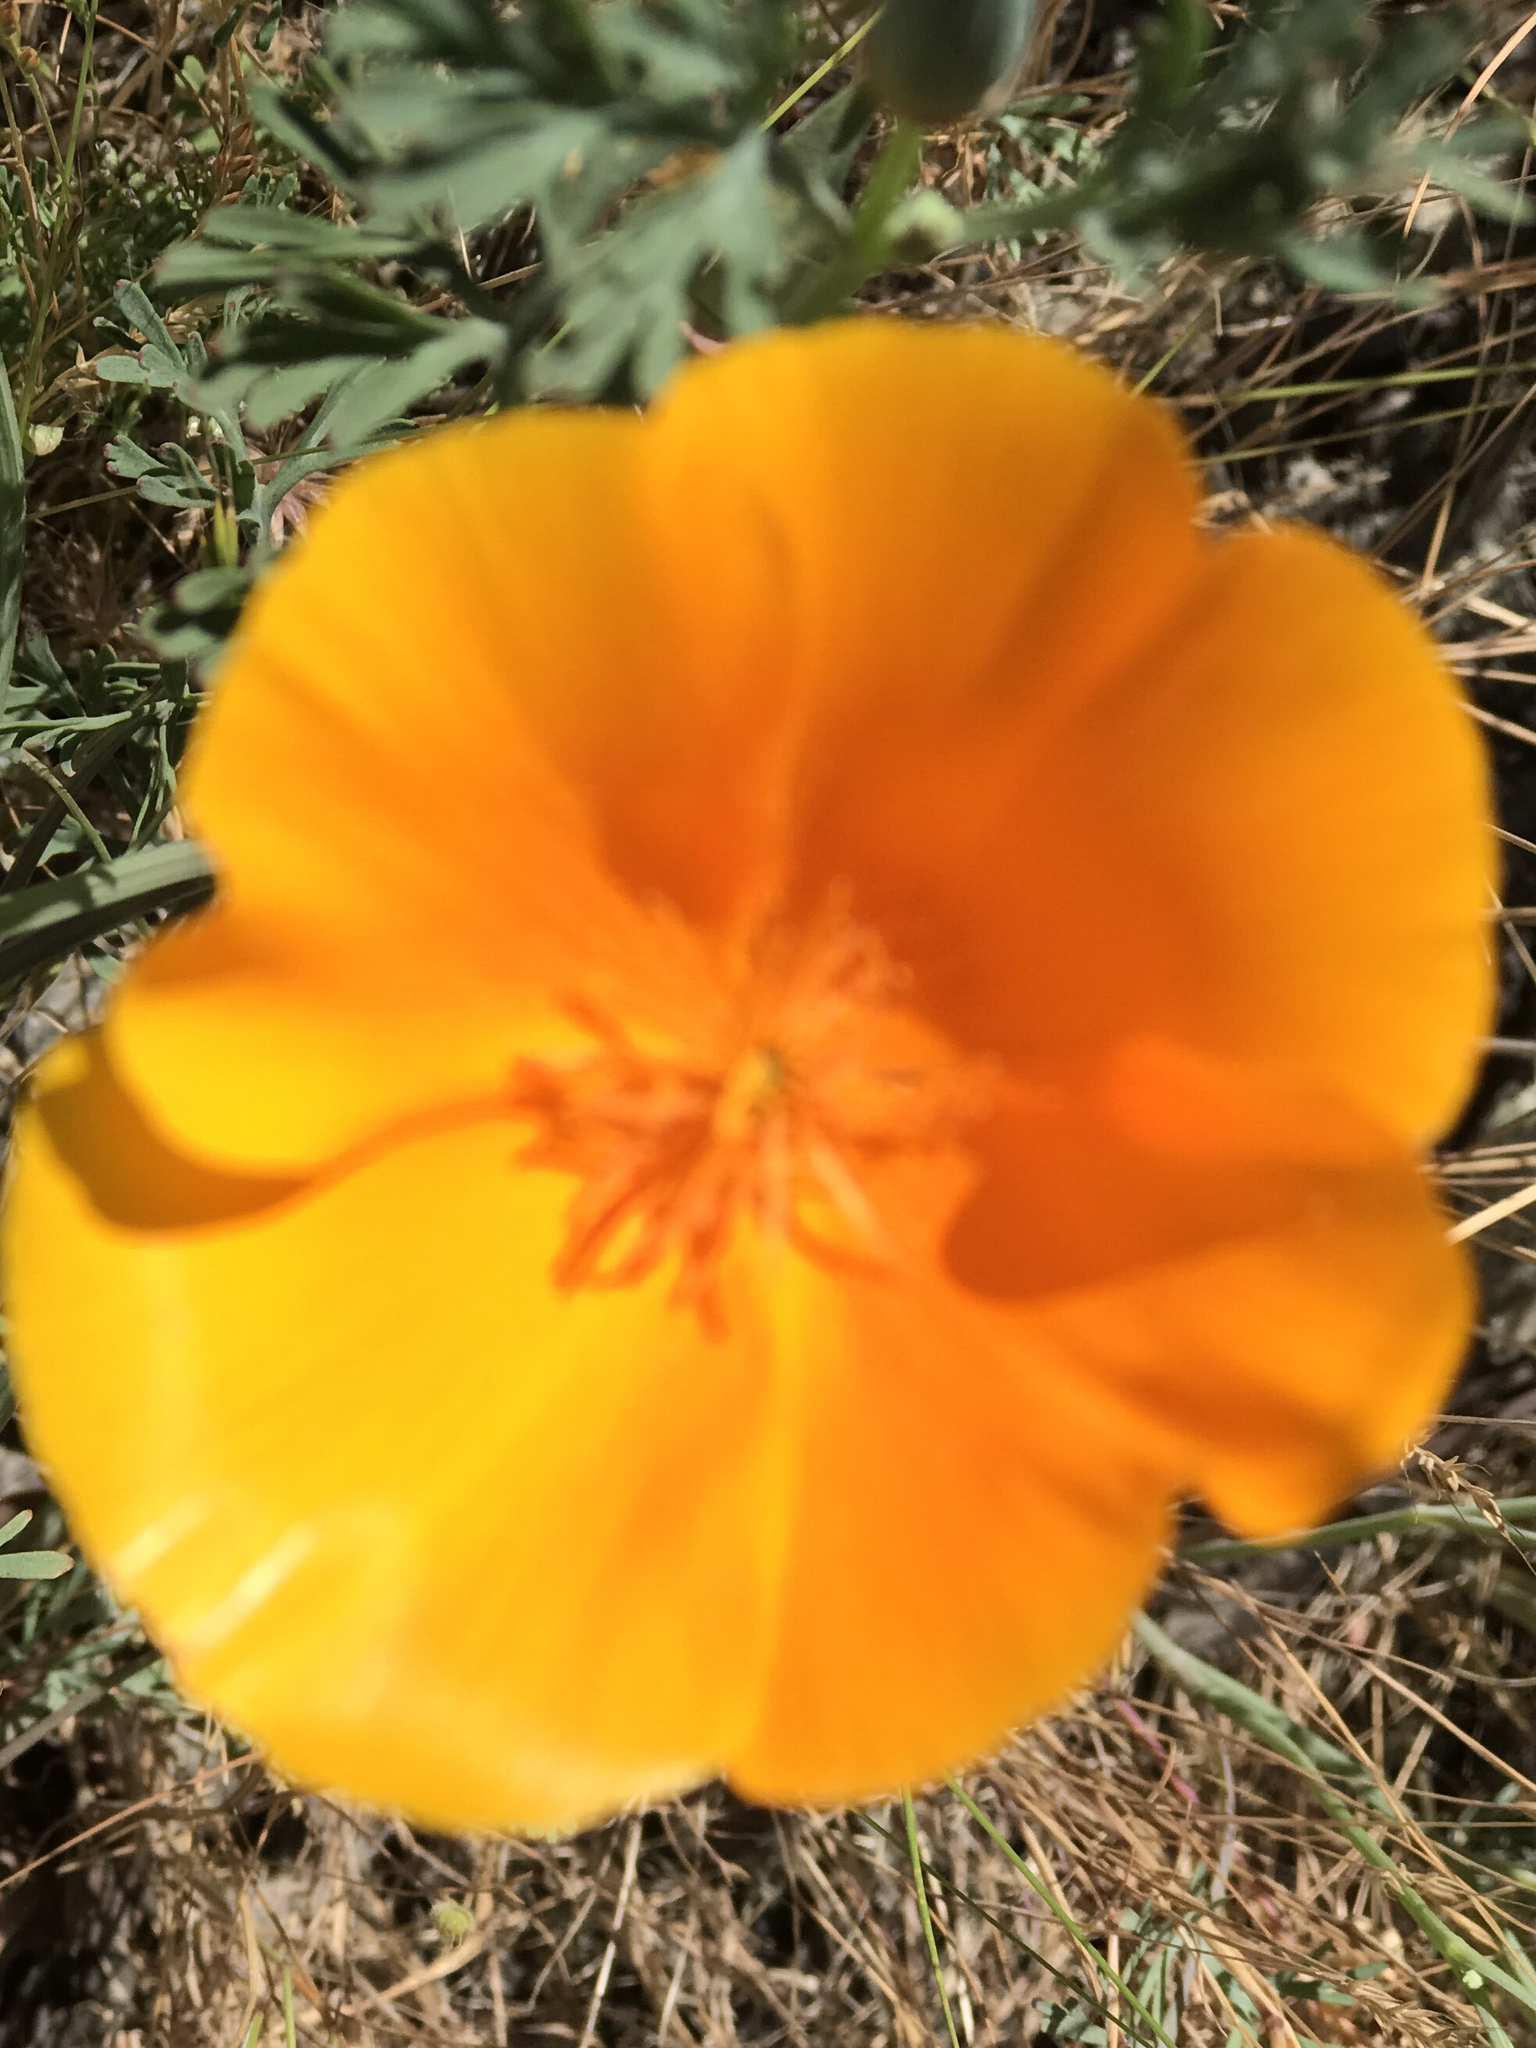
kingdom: Plantae
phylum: Tracheophyta
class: Magnoliopsida
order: Ranunculales
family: Papaveraceae
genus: Eschscholzia
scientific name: Eschscholzia californica
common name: California poppy
